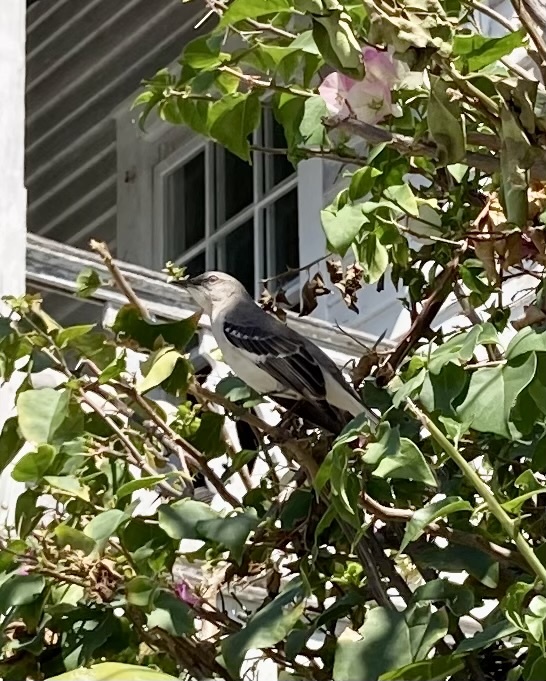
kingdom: Animalia
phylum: Chordata
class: Aves
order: Passeriformes
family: Mimidae
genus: Mimus
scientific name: Mimus polyglottos
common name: Northern mockingbird
